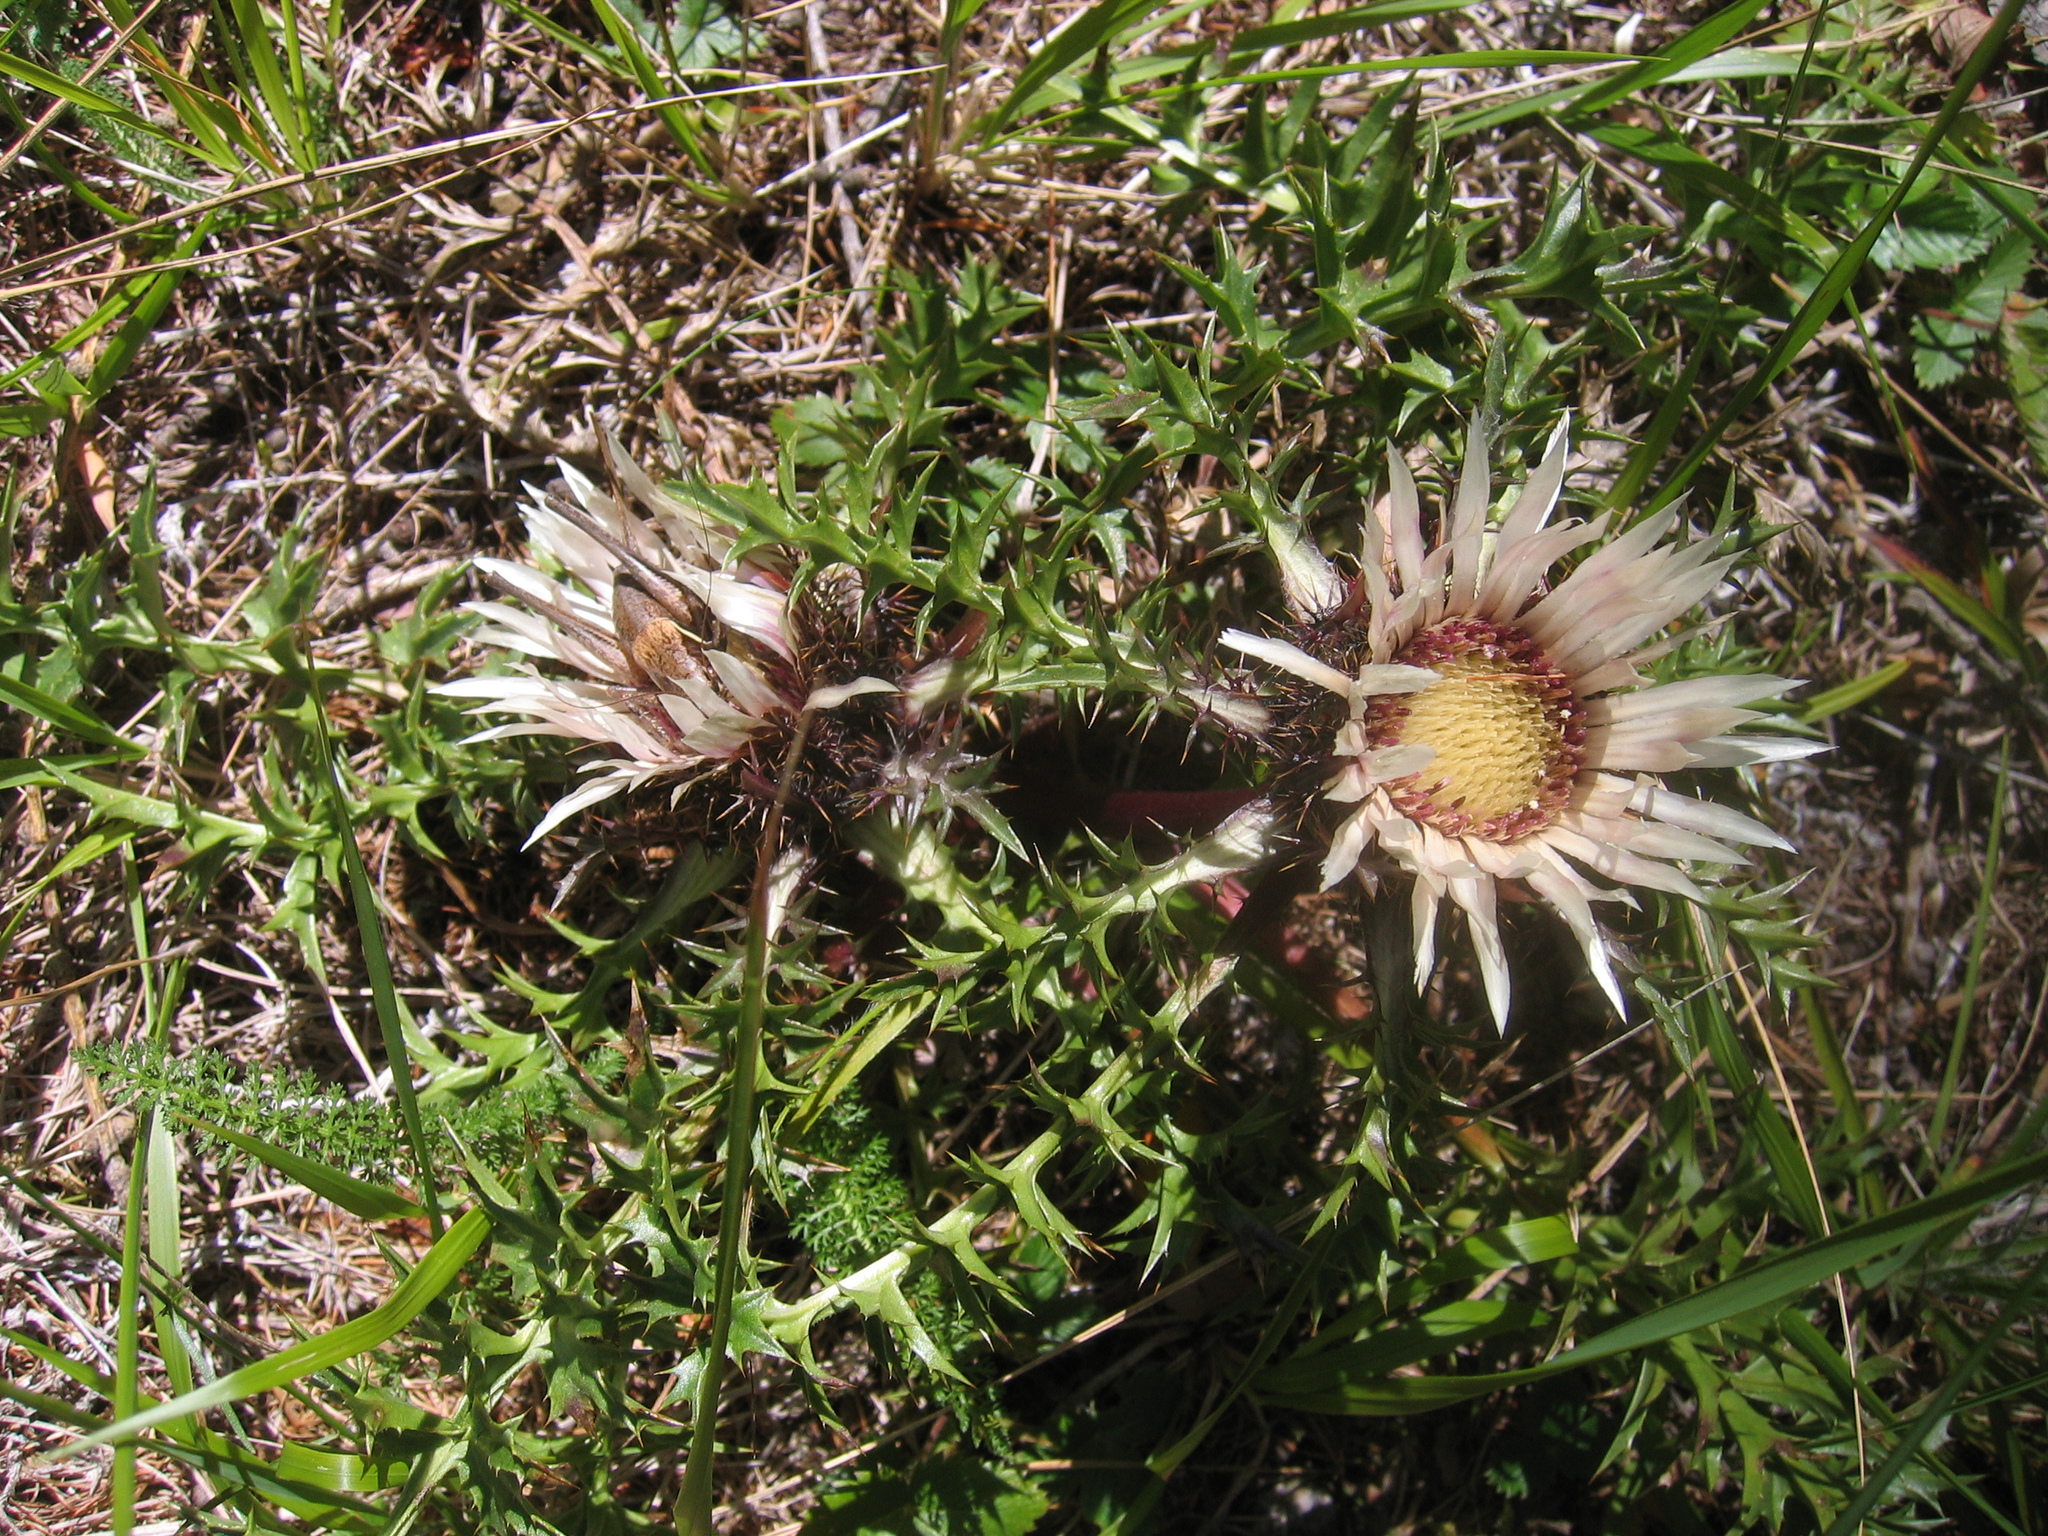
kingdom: Plantae
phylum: Tracheophyta
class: Magnoliopsida
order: Asterales
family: Asteraceae
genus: Carlina
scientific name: Carlina acaulis
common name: Stemless carline thistle
